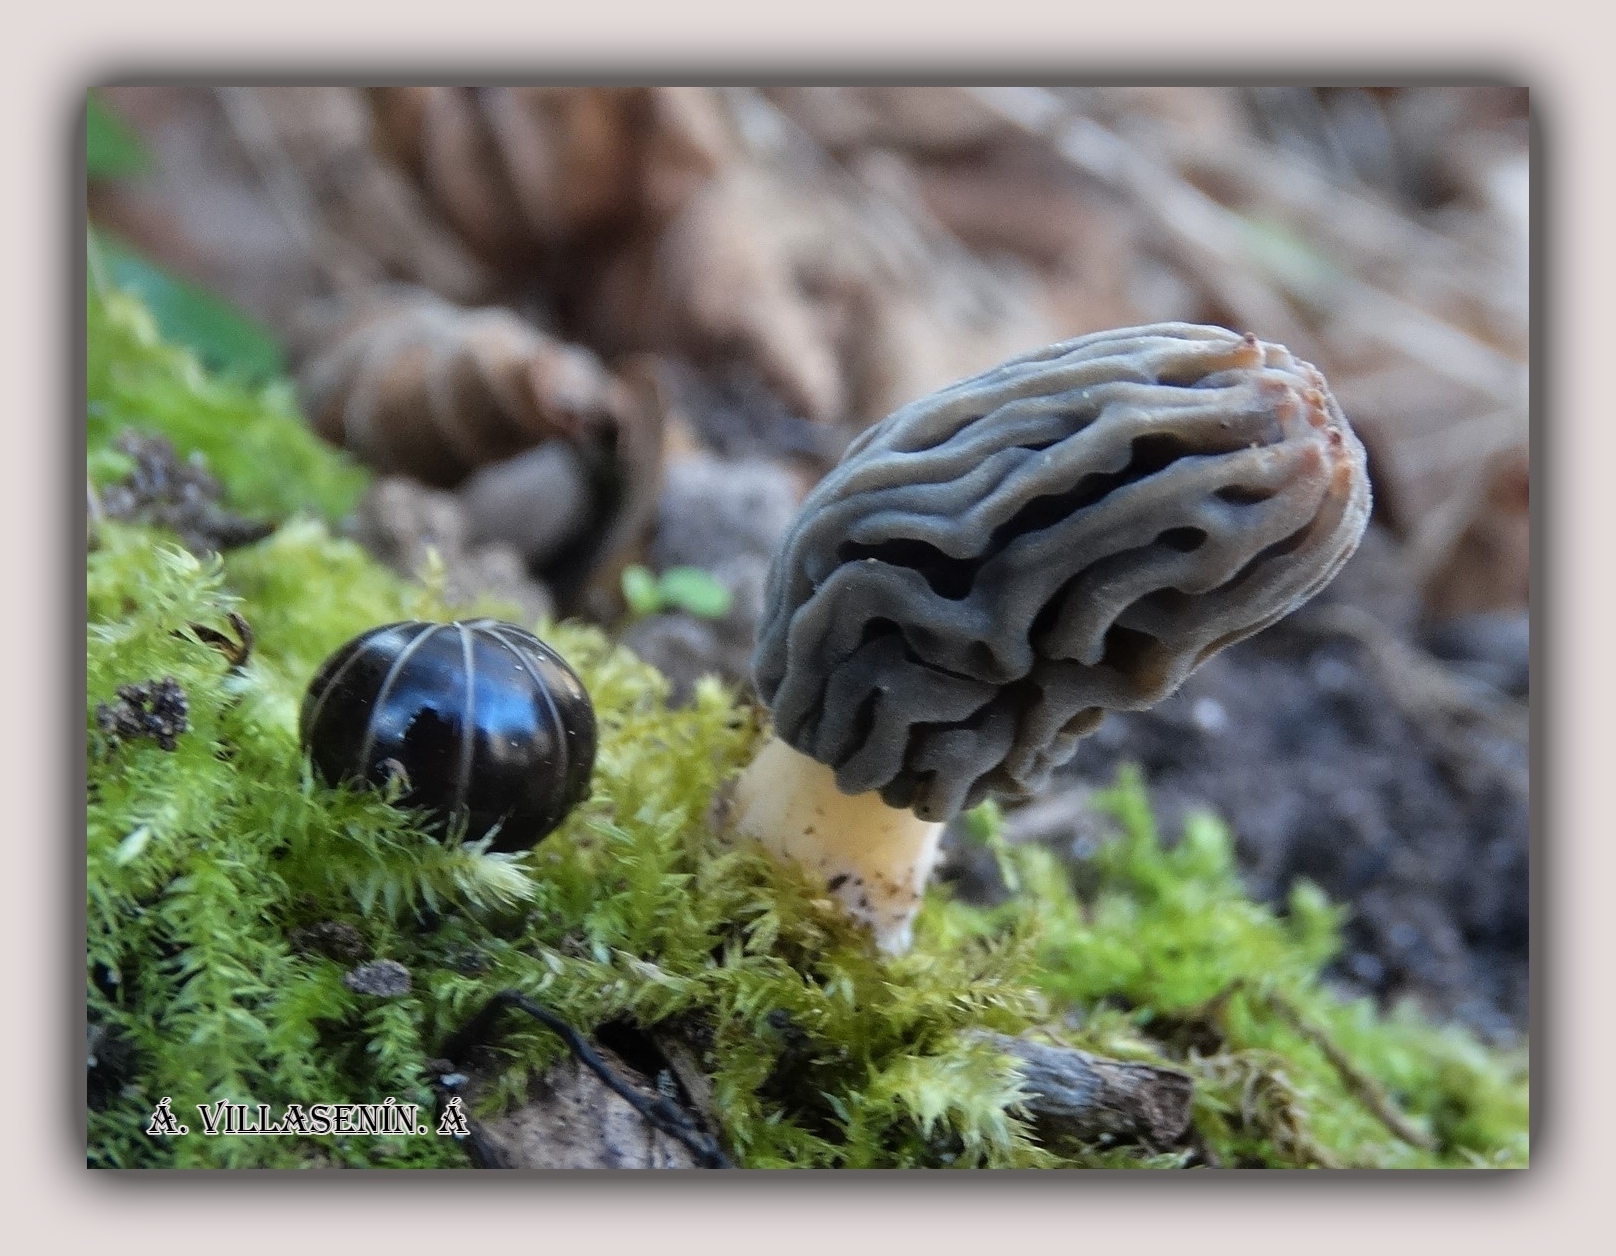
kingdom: Fungi
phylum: Ascomycota
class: Pezizomycetes
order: Pezizales
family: Morchellaceae
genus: Morchella
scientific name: Morchella tridentina
